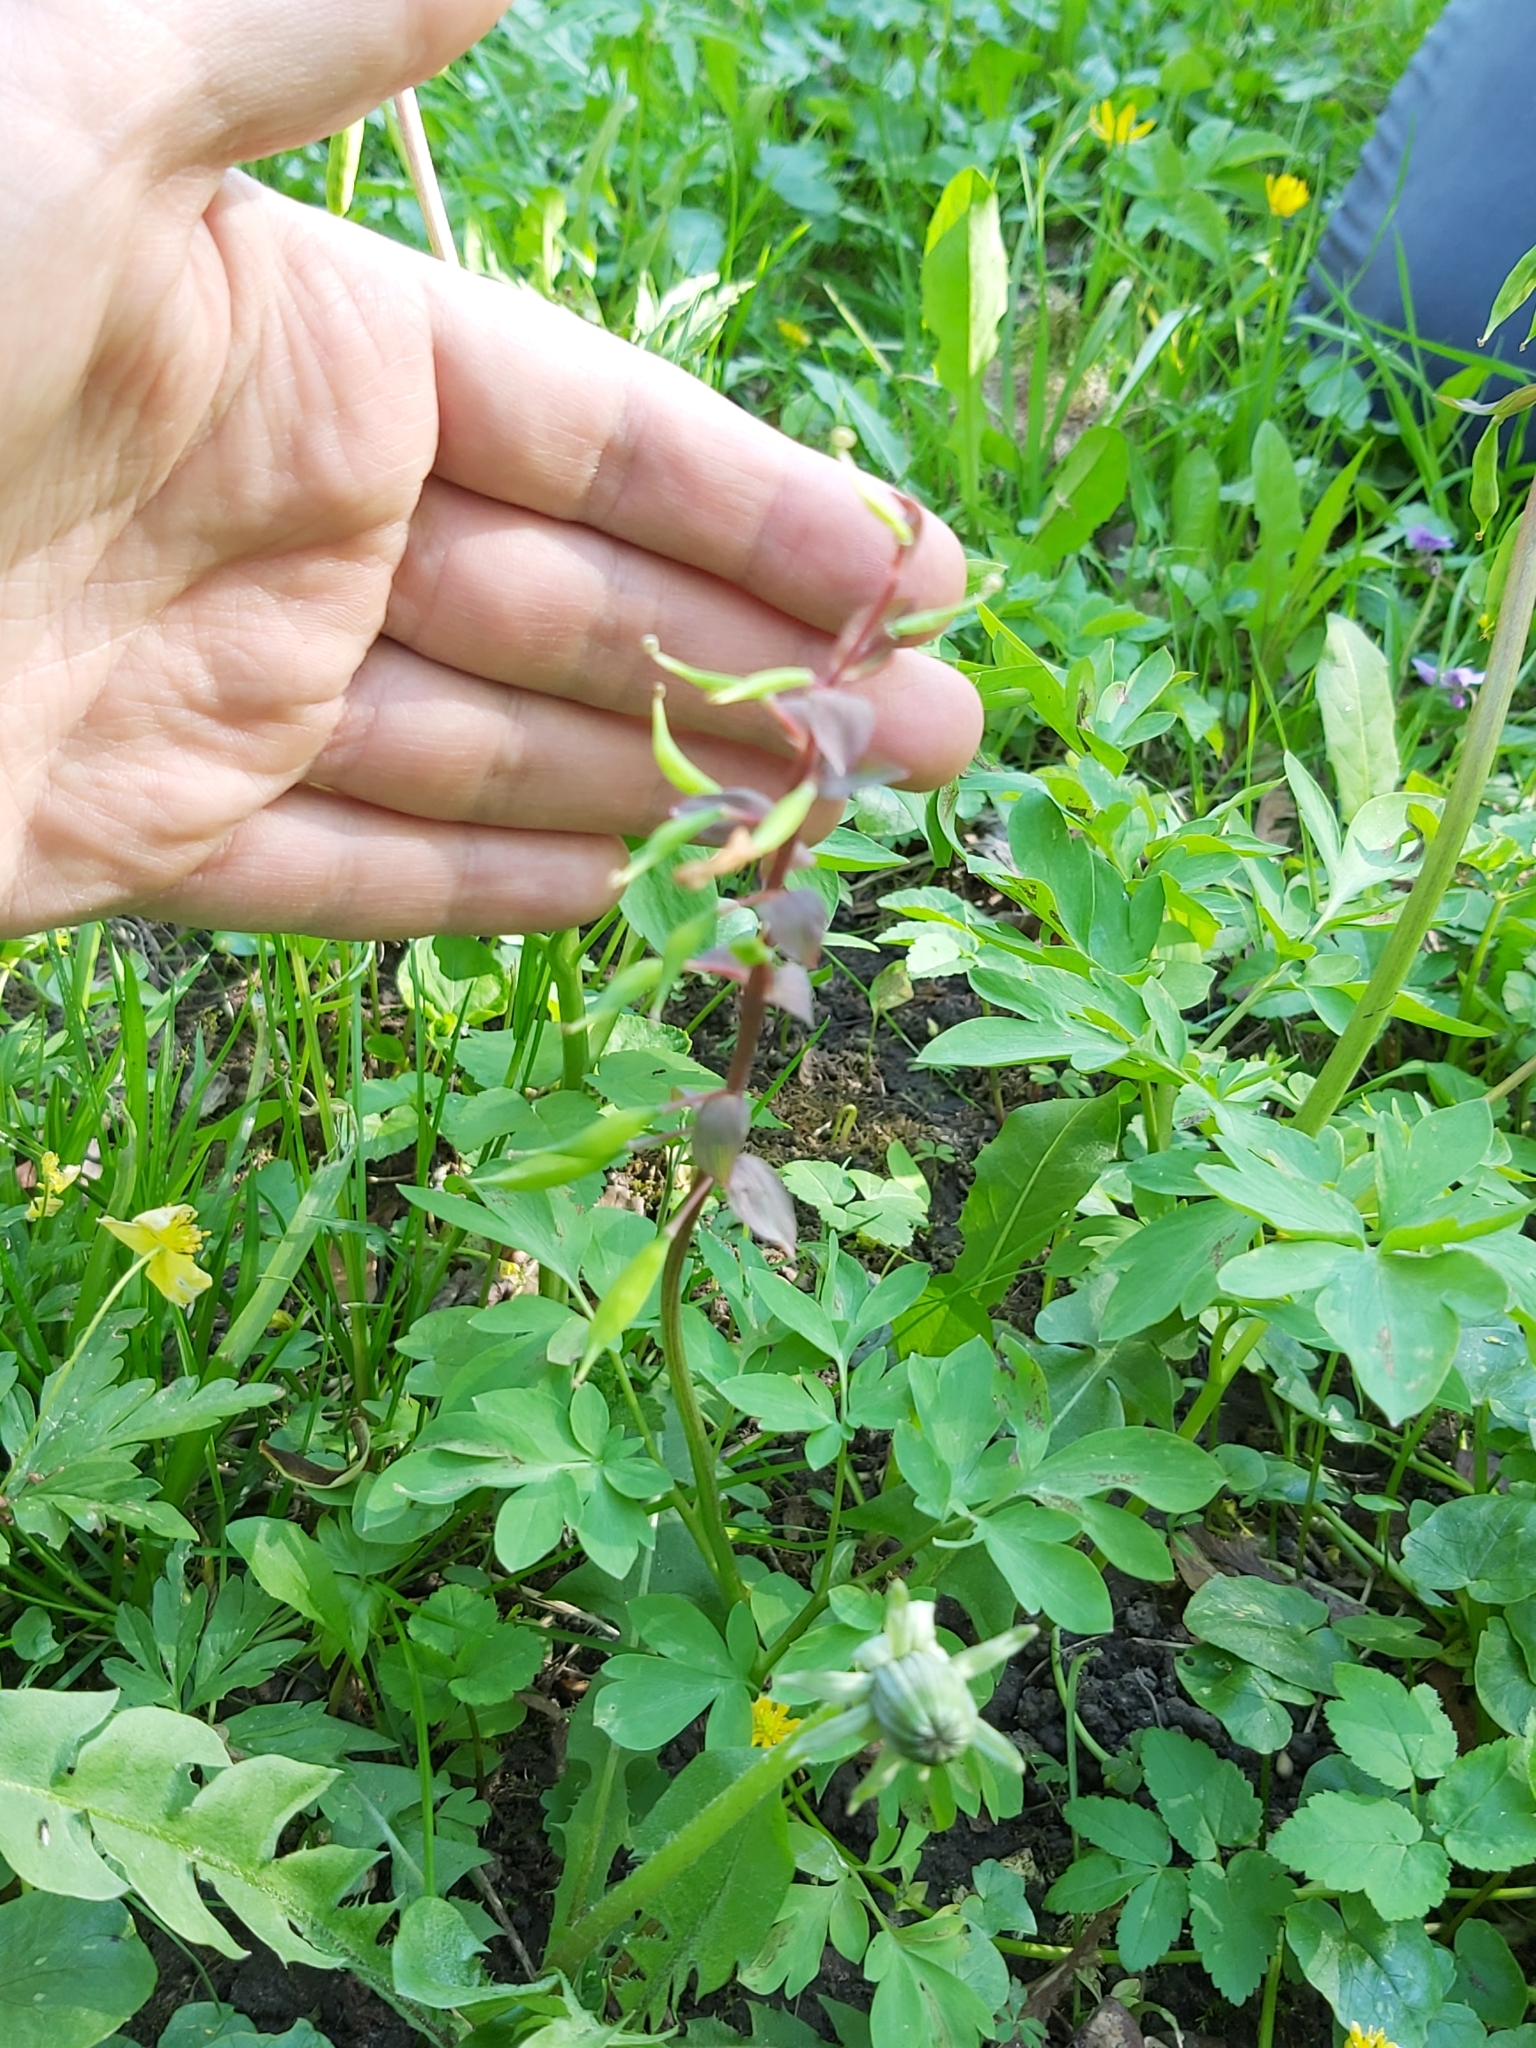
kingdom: Plantae
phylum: Tracheophyta
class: Magnoliopsida
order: Ranunculales
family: Papaveraceae
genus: Corydalis
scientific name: Corydalis cava
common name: Hollowroot
